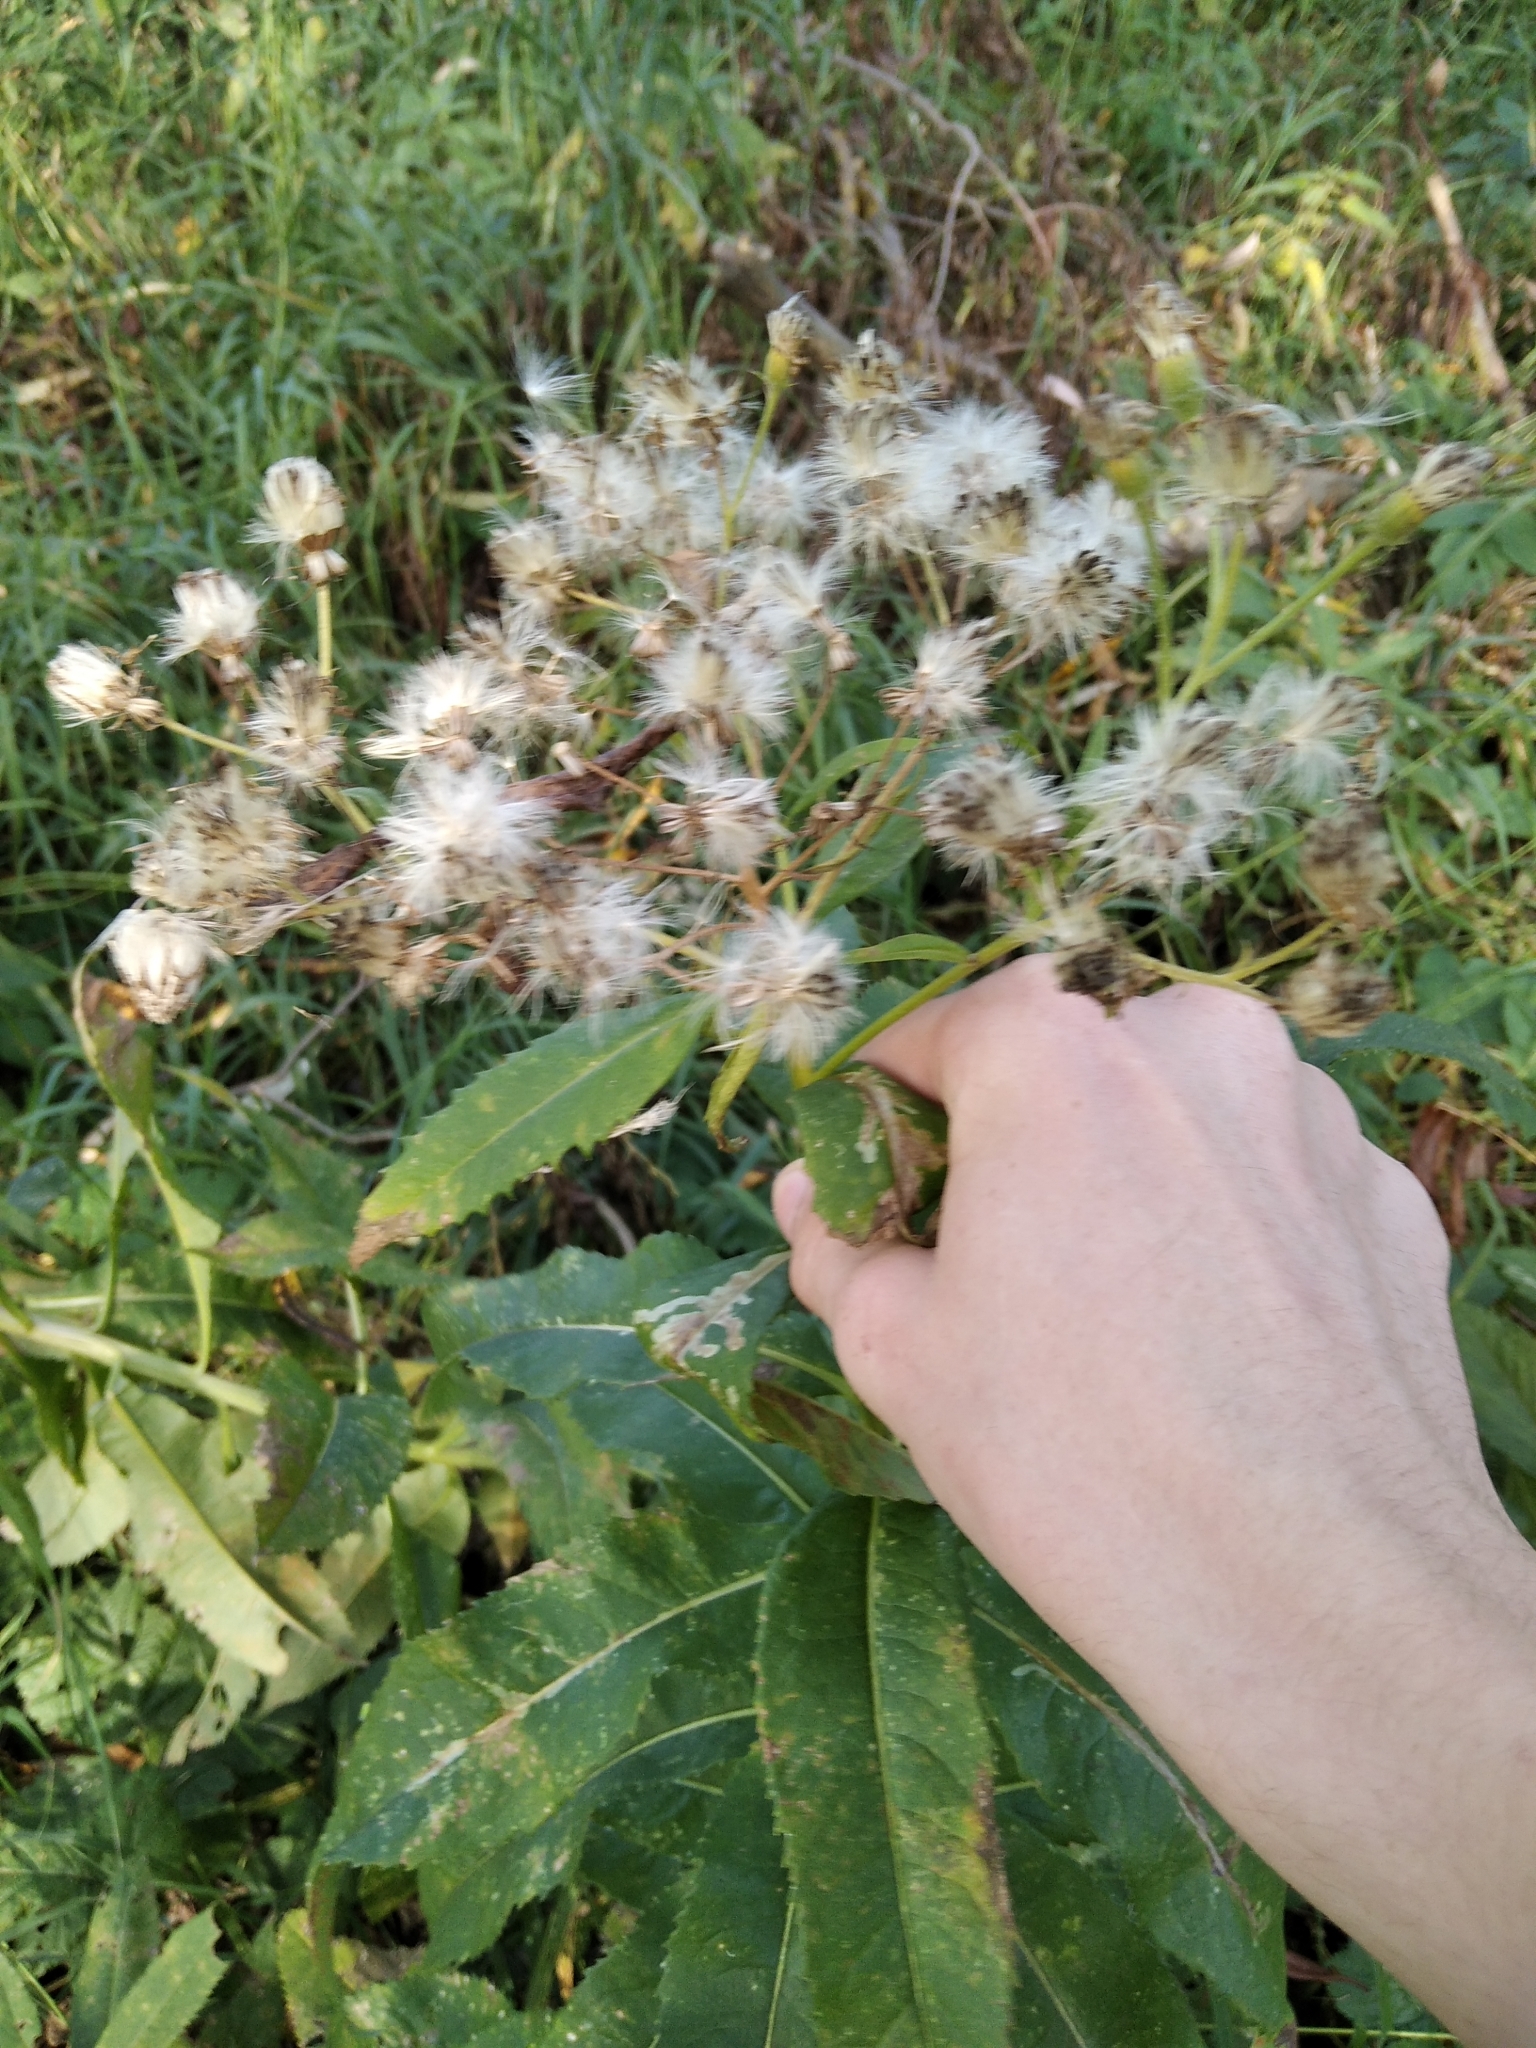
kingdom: Plantae
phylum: Tracheophyta
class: Magnoliopsida
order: Asterales
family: Asteraceae
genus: Senecio
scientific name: Senecio sarracenicus
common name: Broad-leaved ragwort
